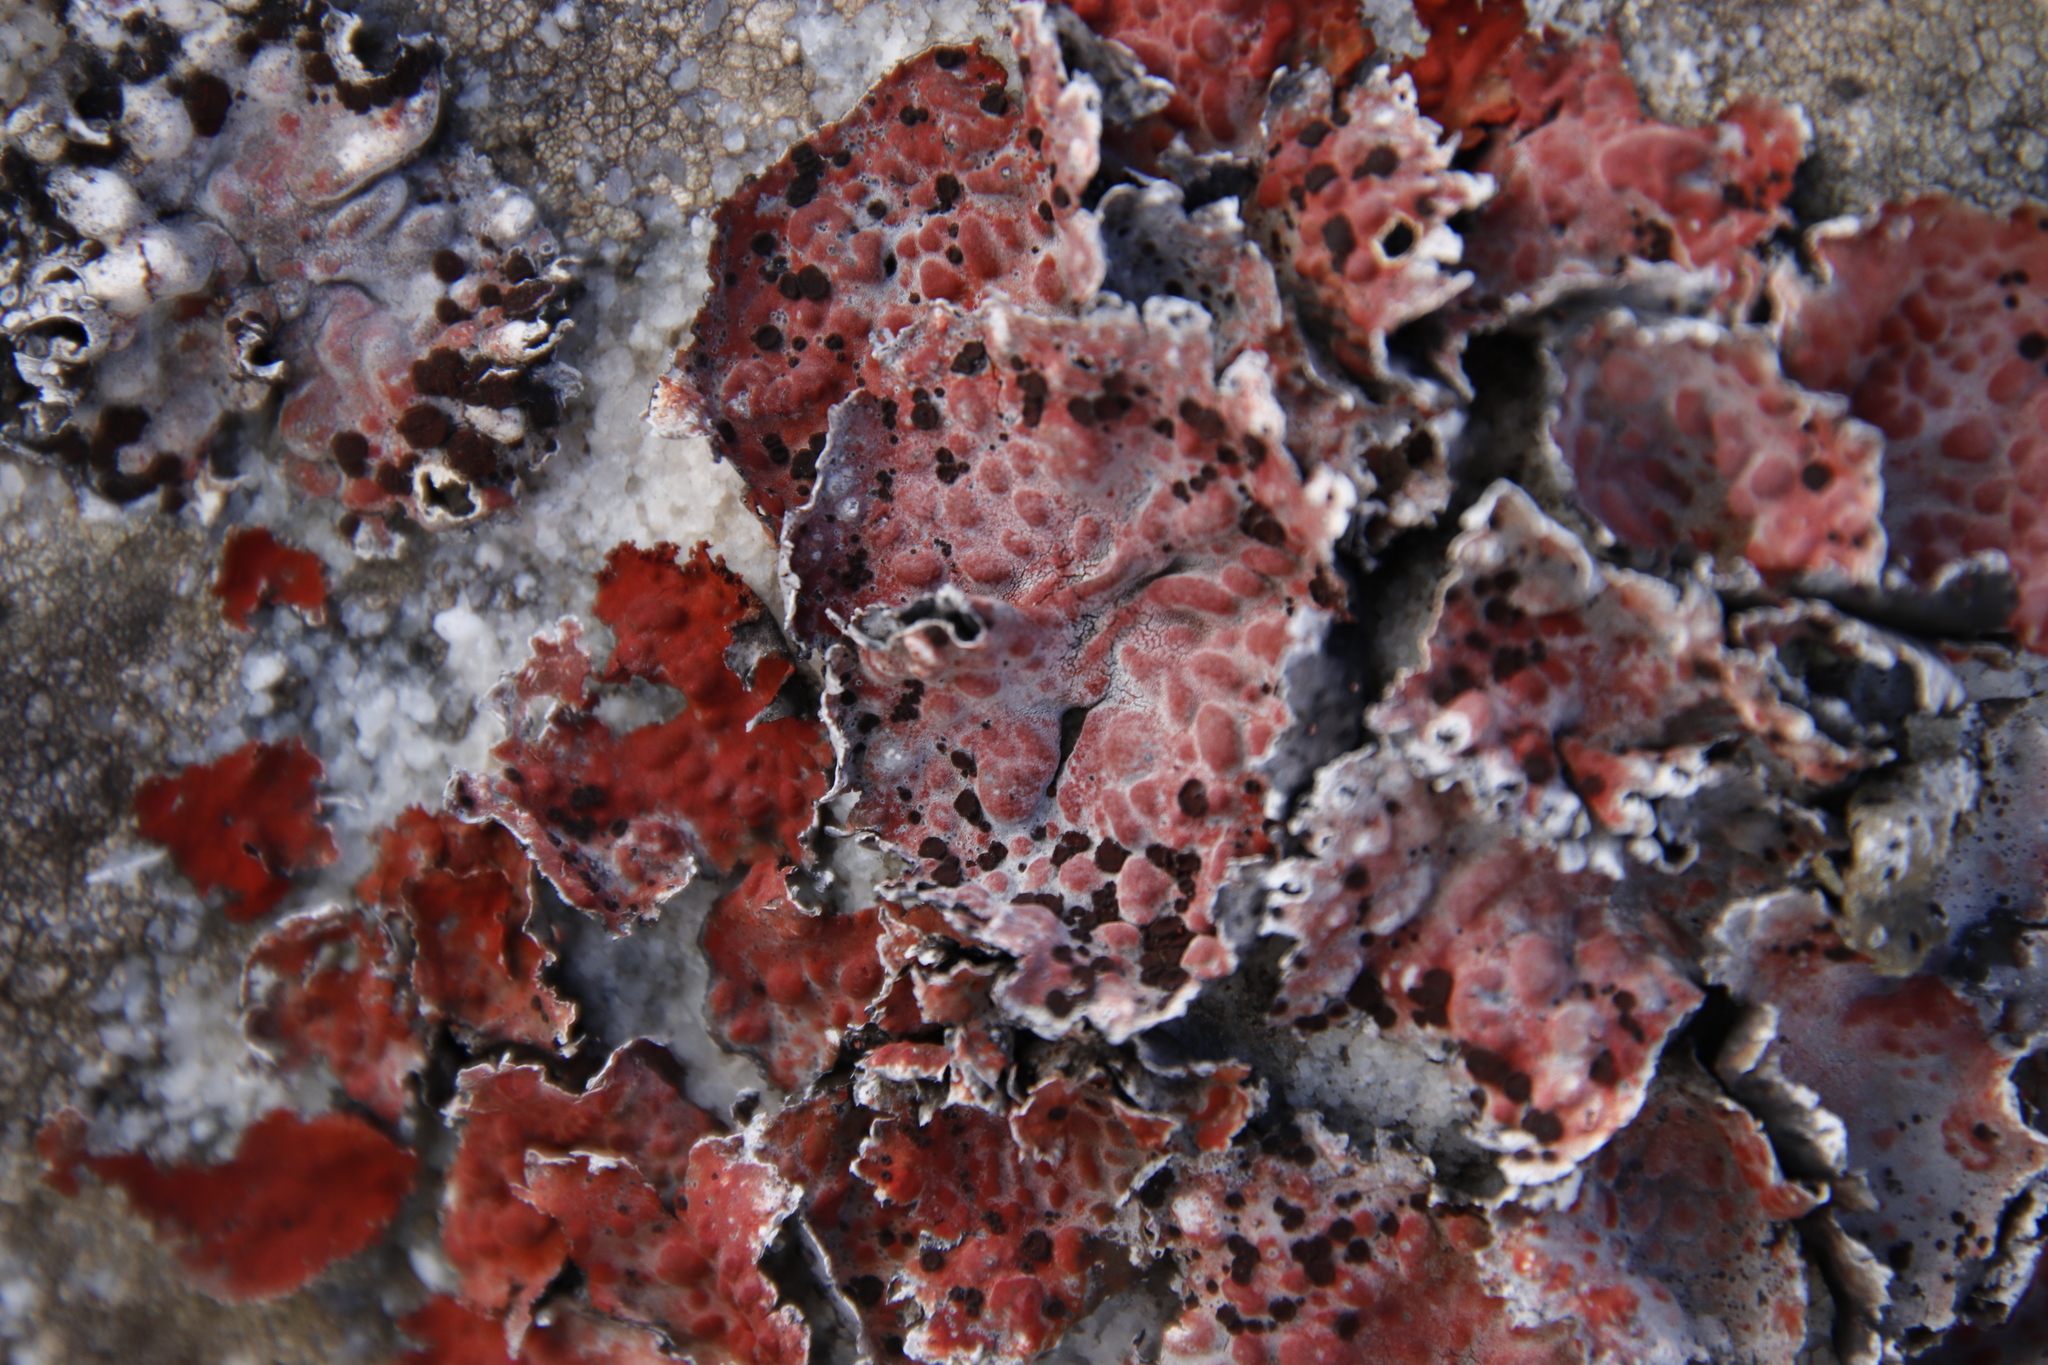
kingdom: Fungi
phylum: Ascomycota
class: Lecanoromycetes
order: Umbilicariales
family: Umbilicariaceae
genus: Lasallia
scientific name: Lasallia rubiginosa
